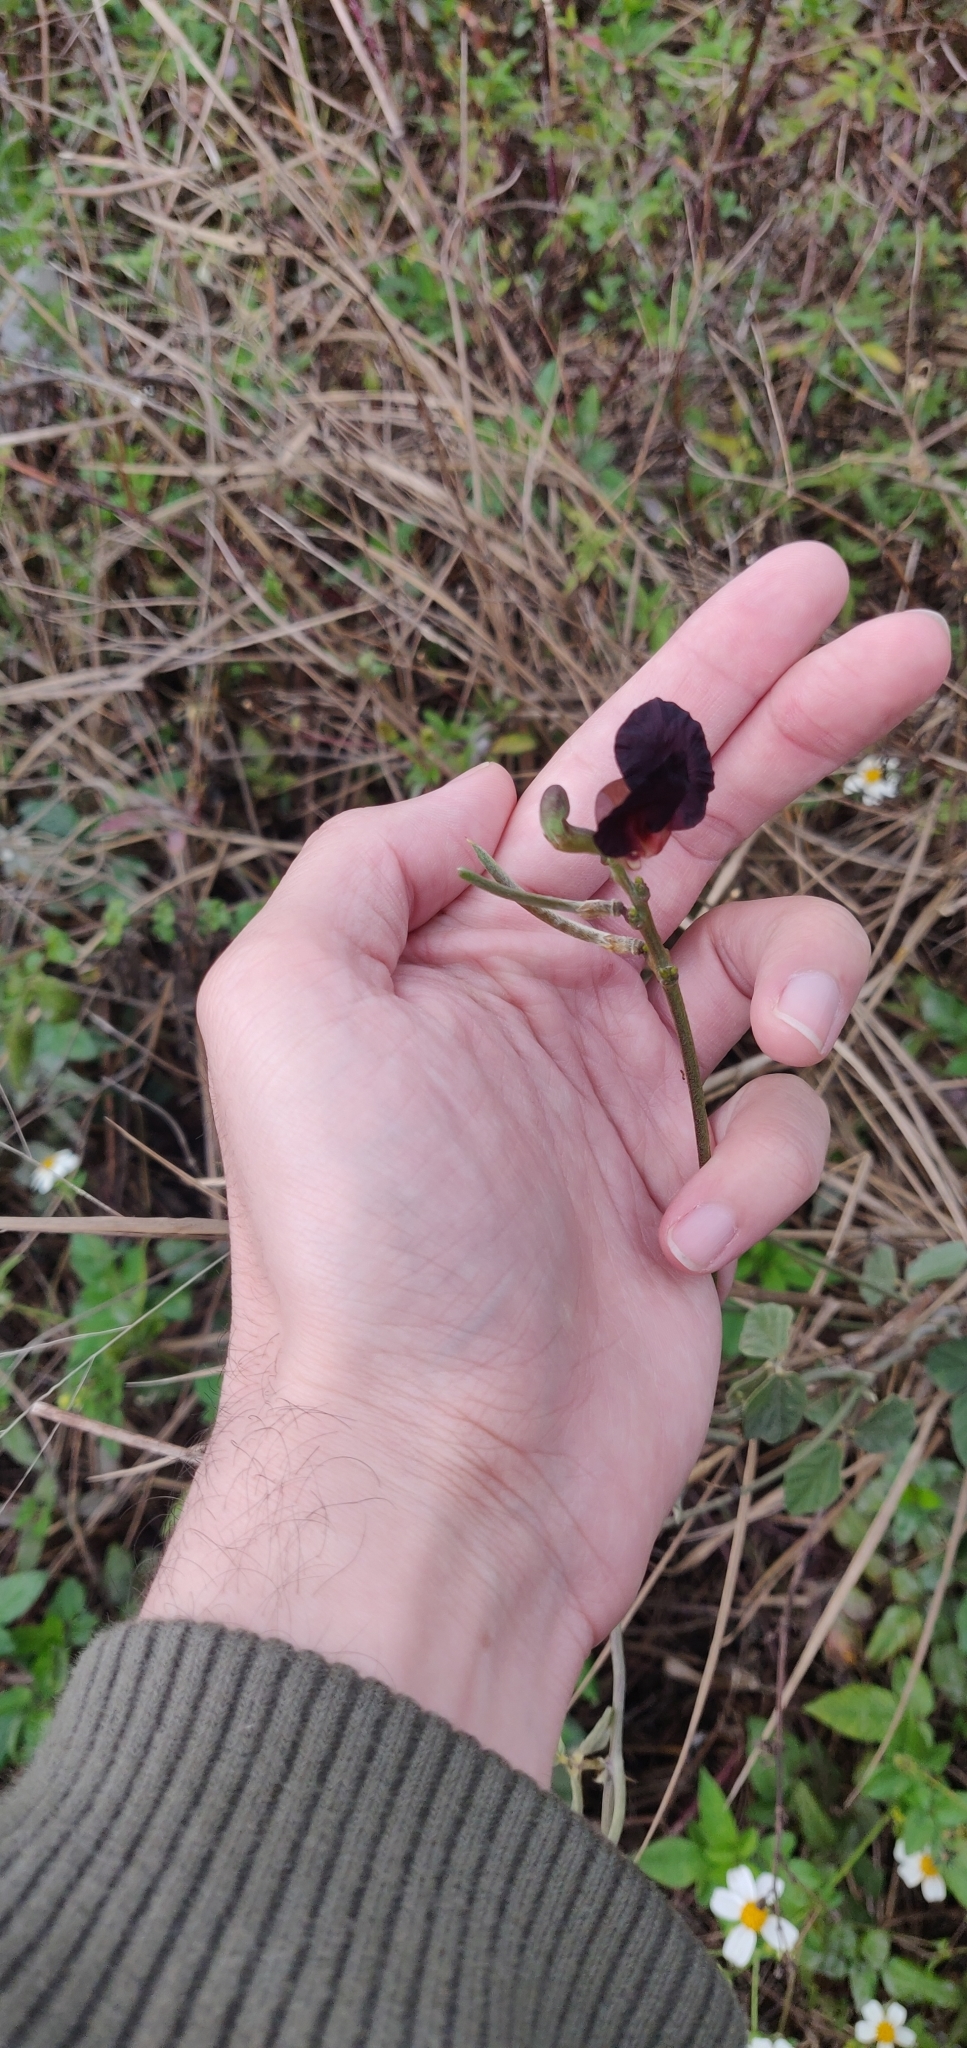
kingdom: Plantae
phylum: Tracheophyta
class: Magnoliopsida
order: Fabales
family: Fabaceae
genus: Macroptilium
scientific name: Macroptilium atropurpureum
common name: Purple bushbean
